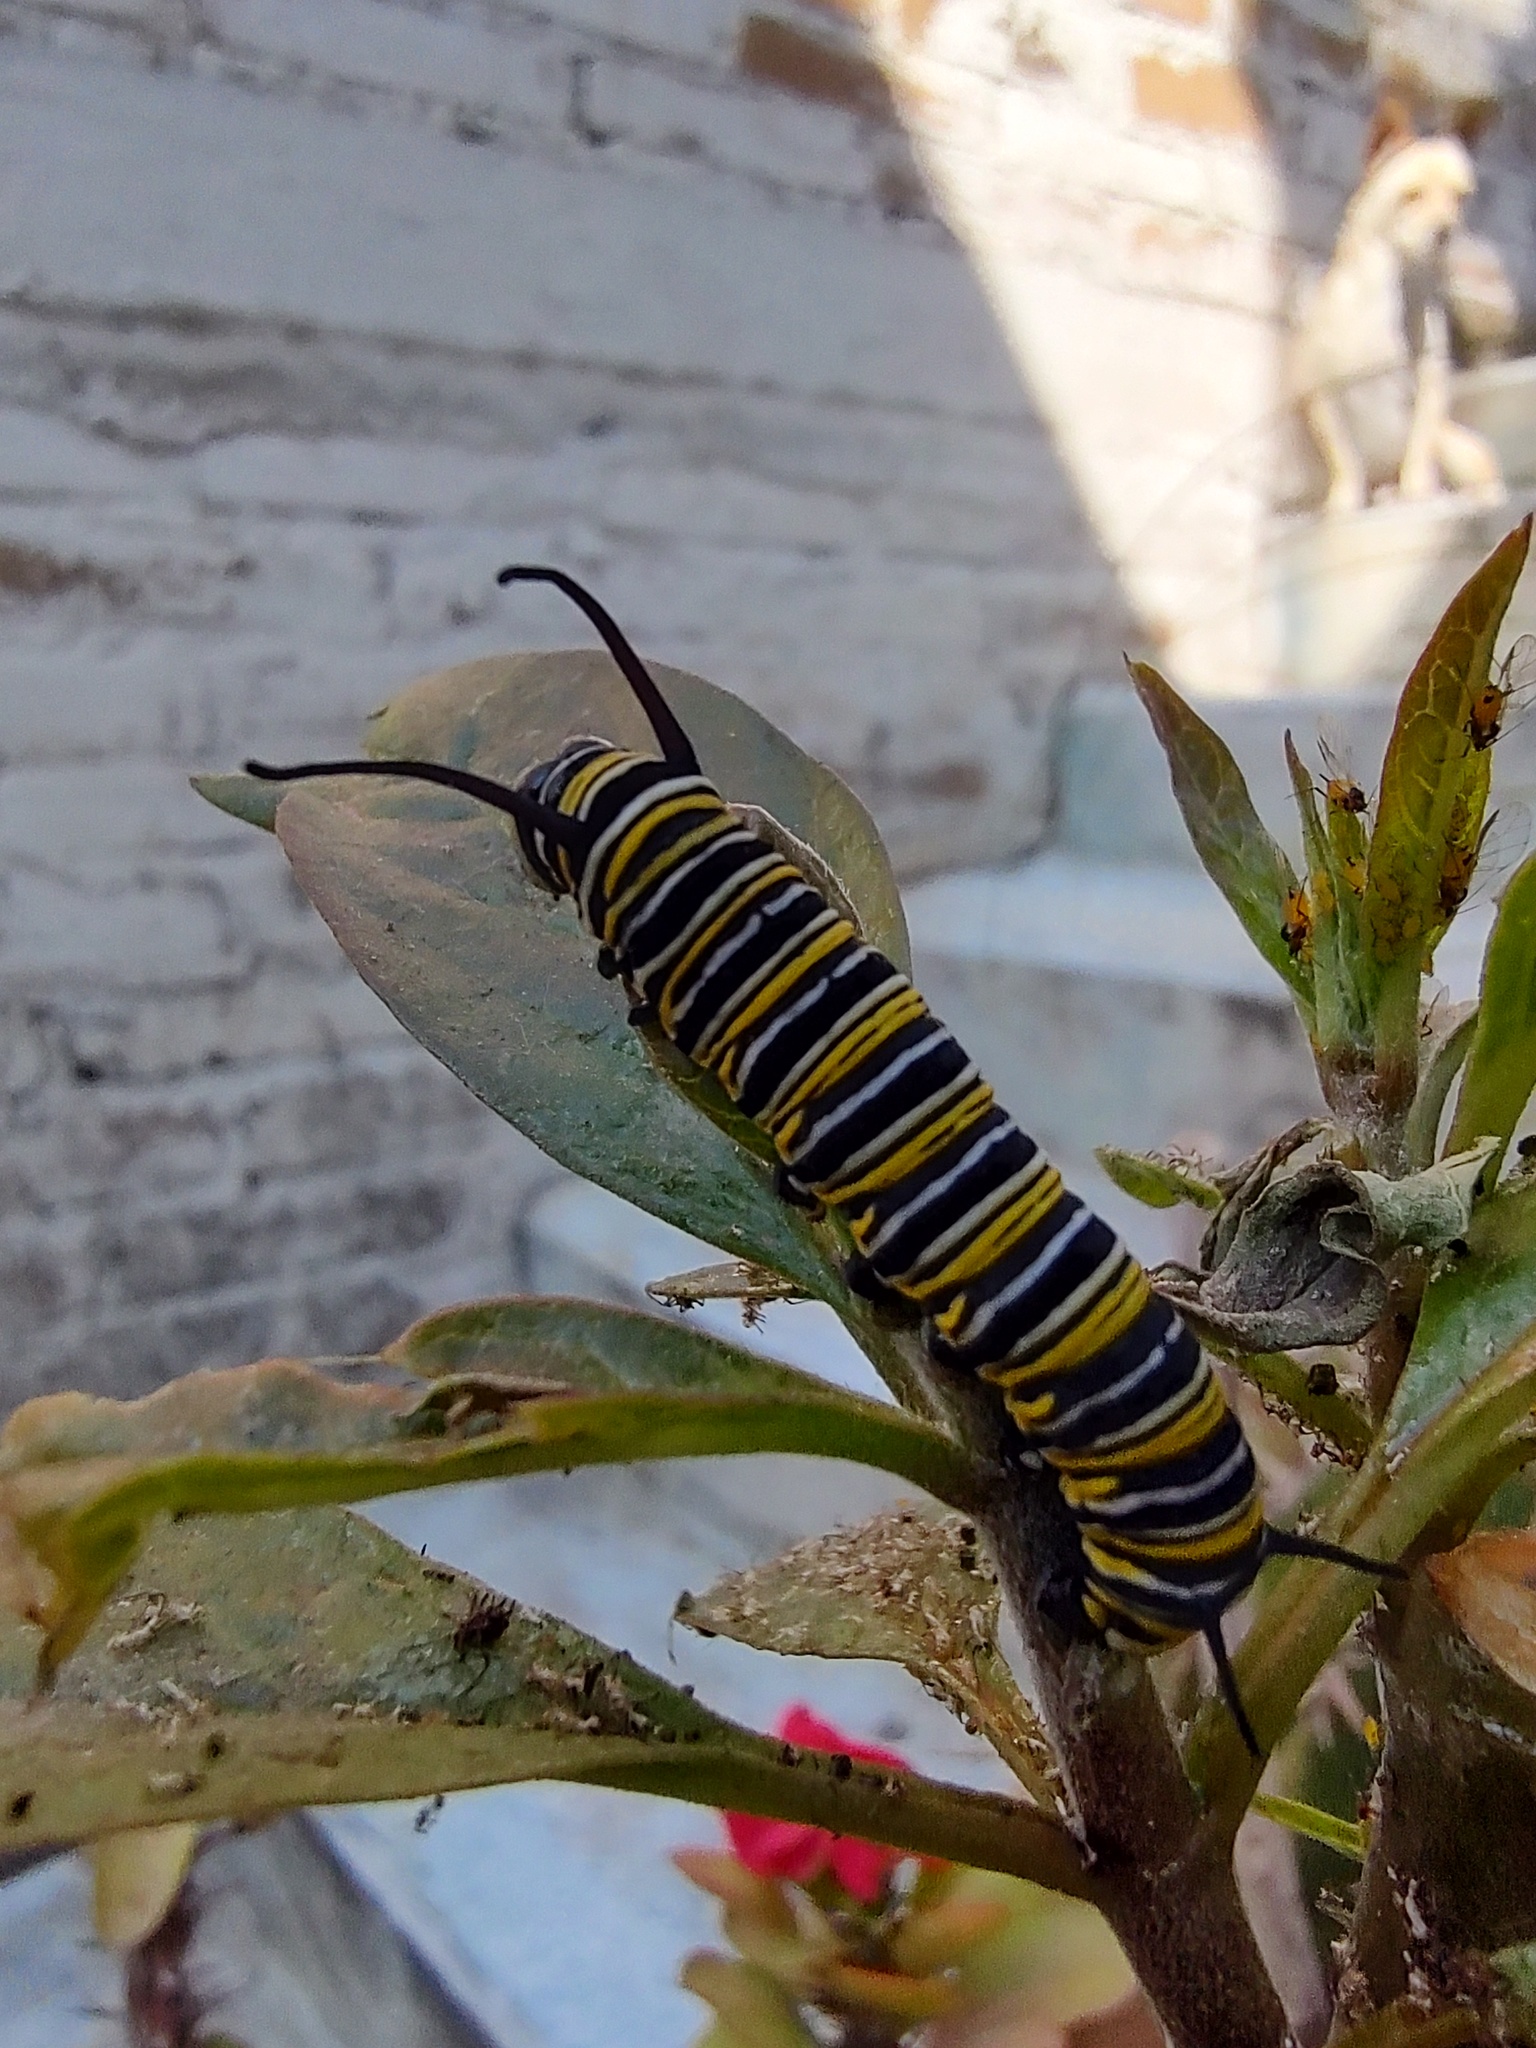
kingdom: Animalia
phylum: Arthropoda
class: Insecta
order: Lepidoptera
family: Nymphalidae
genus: Danaus
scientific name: Danaus plexippus
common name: Monarch
